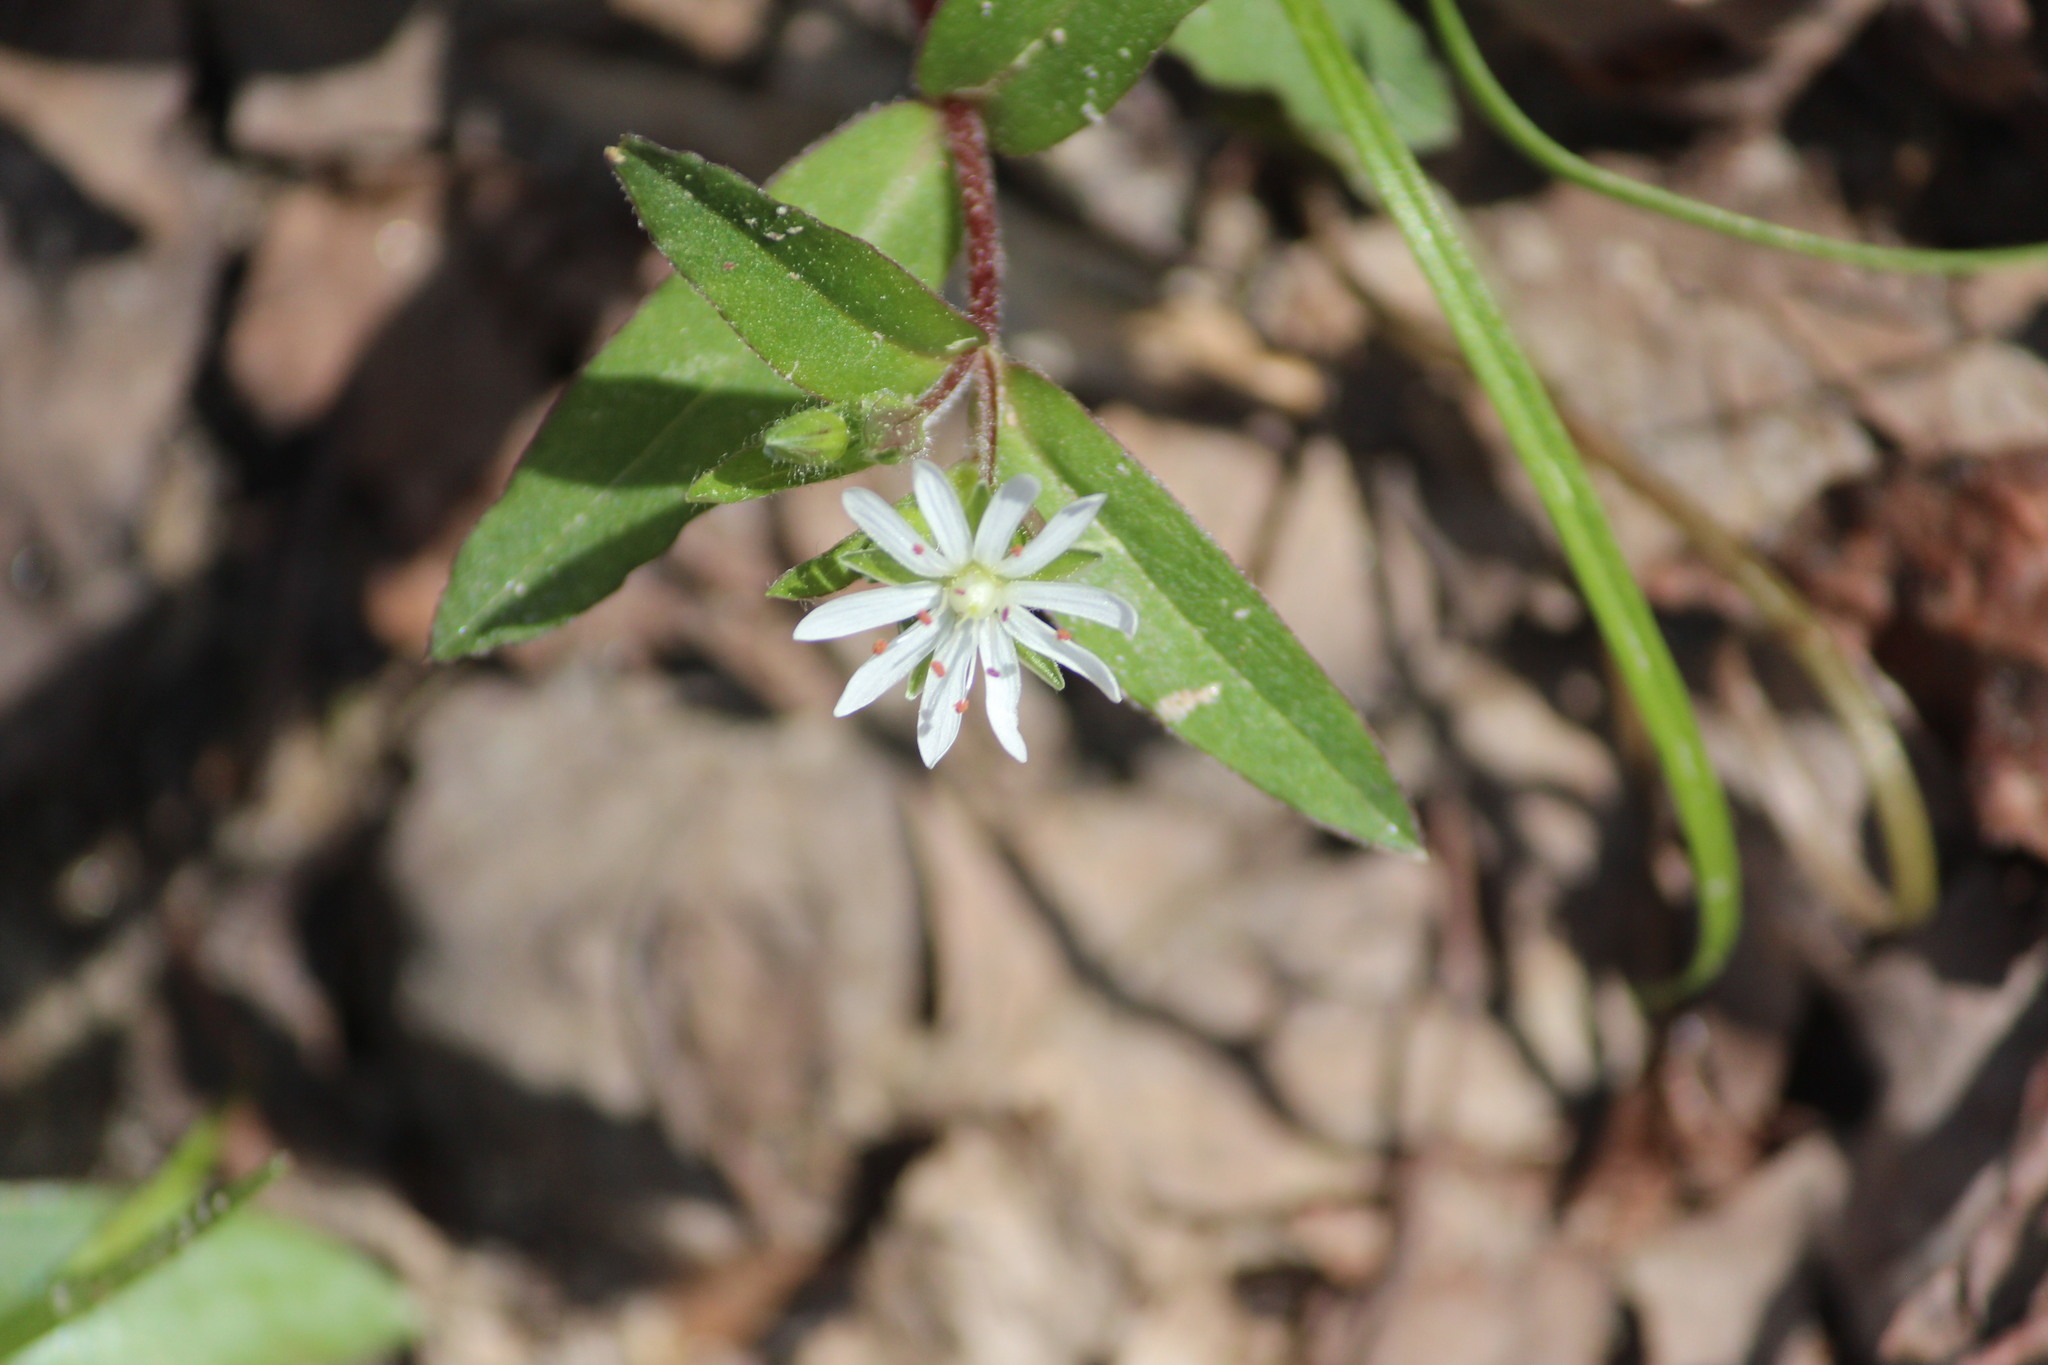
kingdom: Plantae
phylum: Tracheophyta
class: Magnoliopsida
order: Caryophyllales
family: Caryophyllaceae
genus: Stellaria
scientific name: Stellaria pubera
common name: Star chickweed
